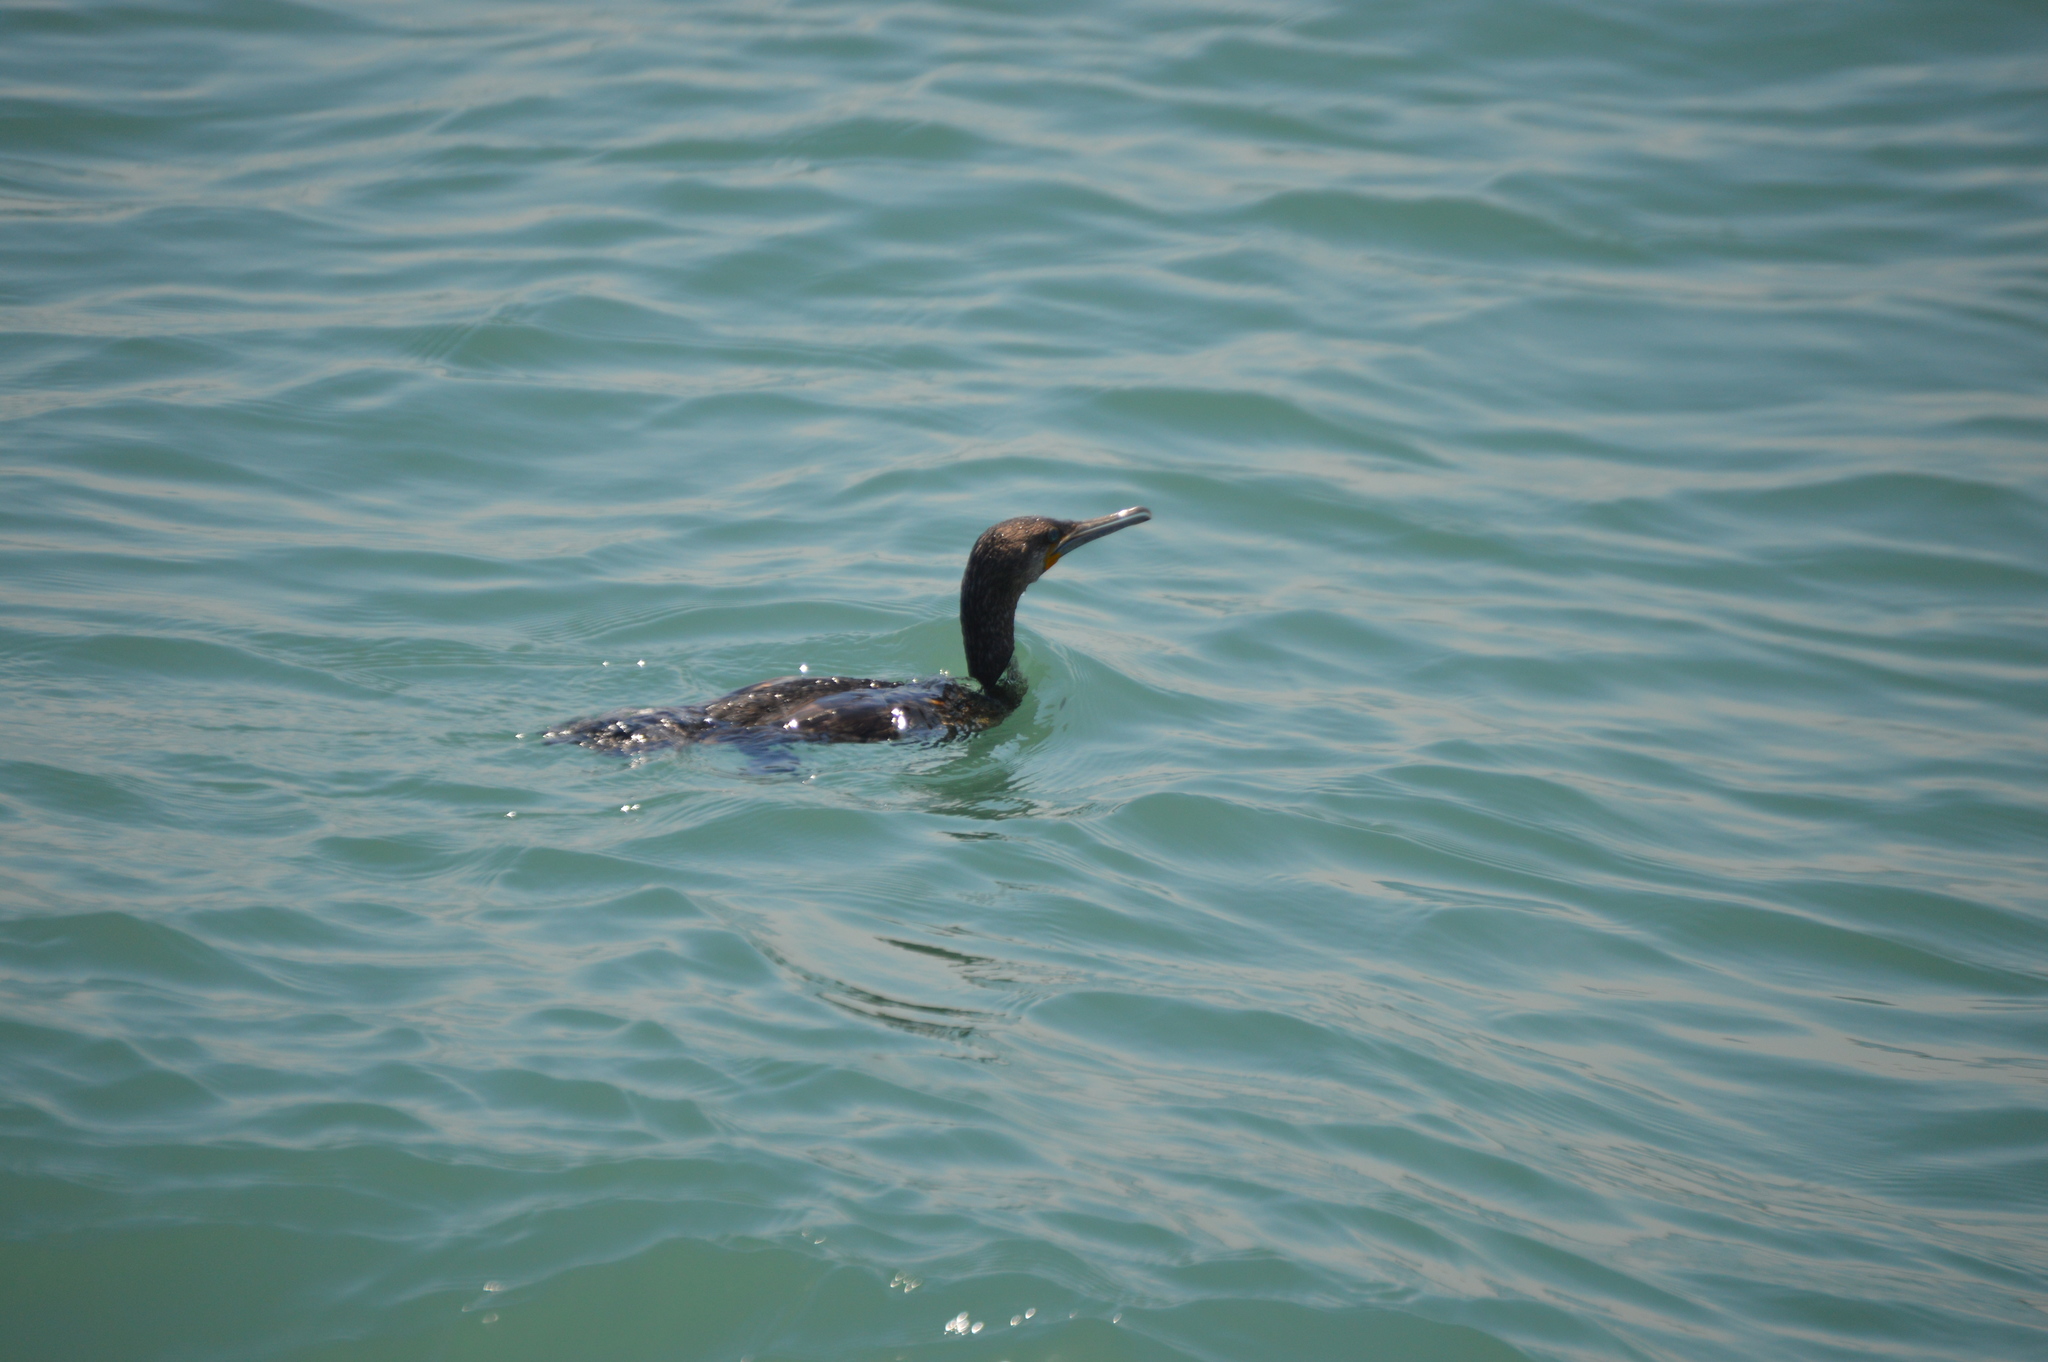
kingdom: Animalia
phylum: Chordata
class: Aves
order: Suliformes
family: Phalacrocoracidae
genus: Phalacrocorax
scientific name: Phalacrocorax capensis
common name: Cape cormorant
